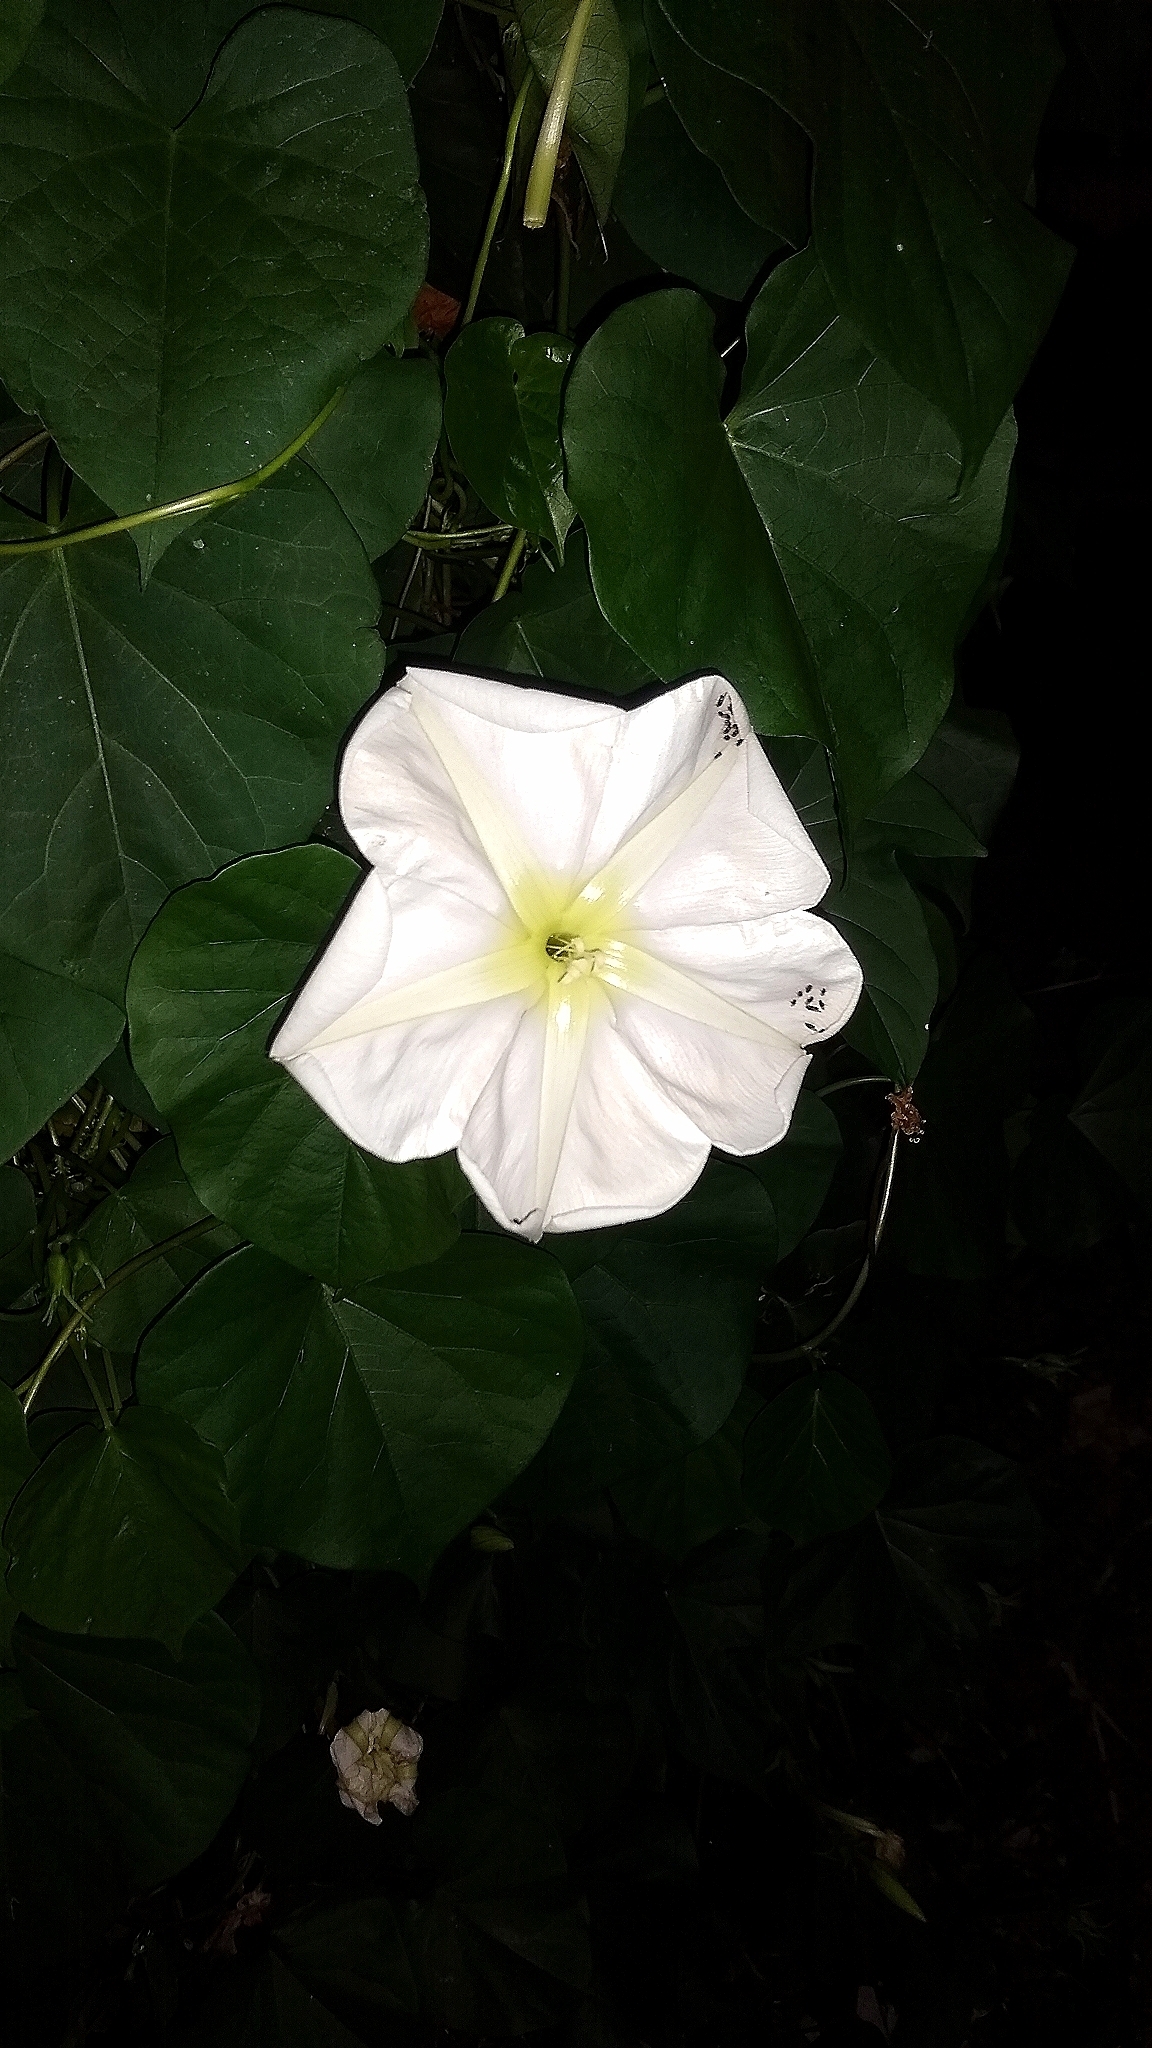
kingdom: Plantae
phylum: Tracheophyta
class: Magnoliopsida
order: Solanales
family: Convolvulaceae
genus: Ipomoea
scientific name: Ipomoea alba
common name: Moonflower
